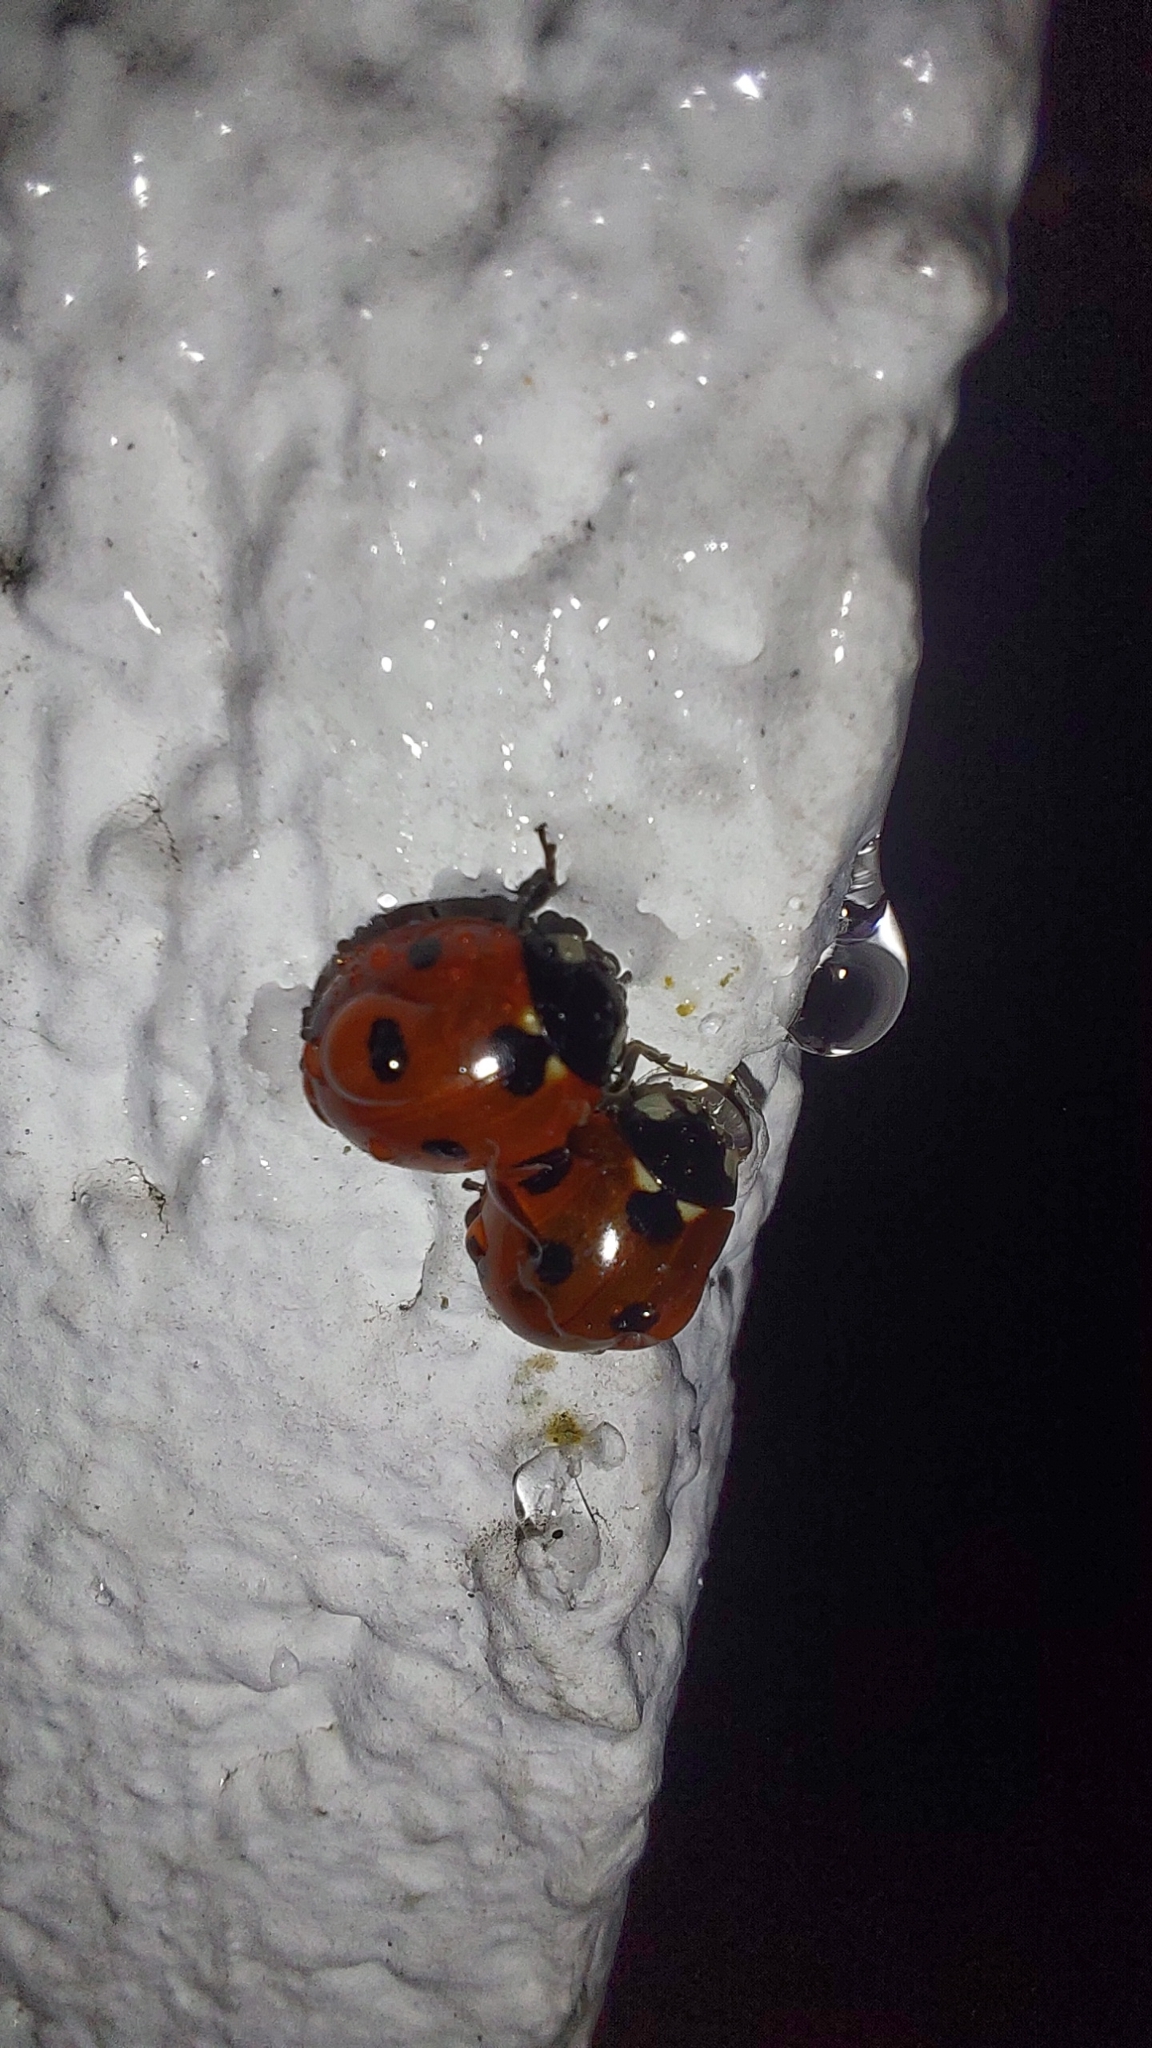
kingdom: Animalia
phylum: Arthropoda
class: Insecta
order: Coleoptera
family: Coccinellidae
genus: Coccinella
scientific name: Coccinella septempunctata
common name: Sevenspotted lady beetle
